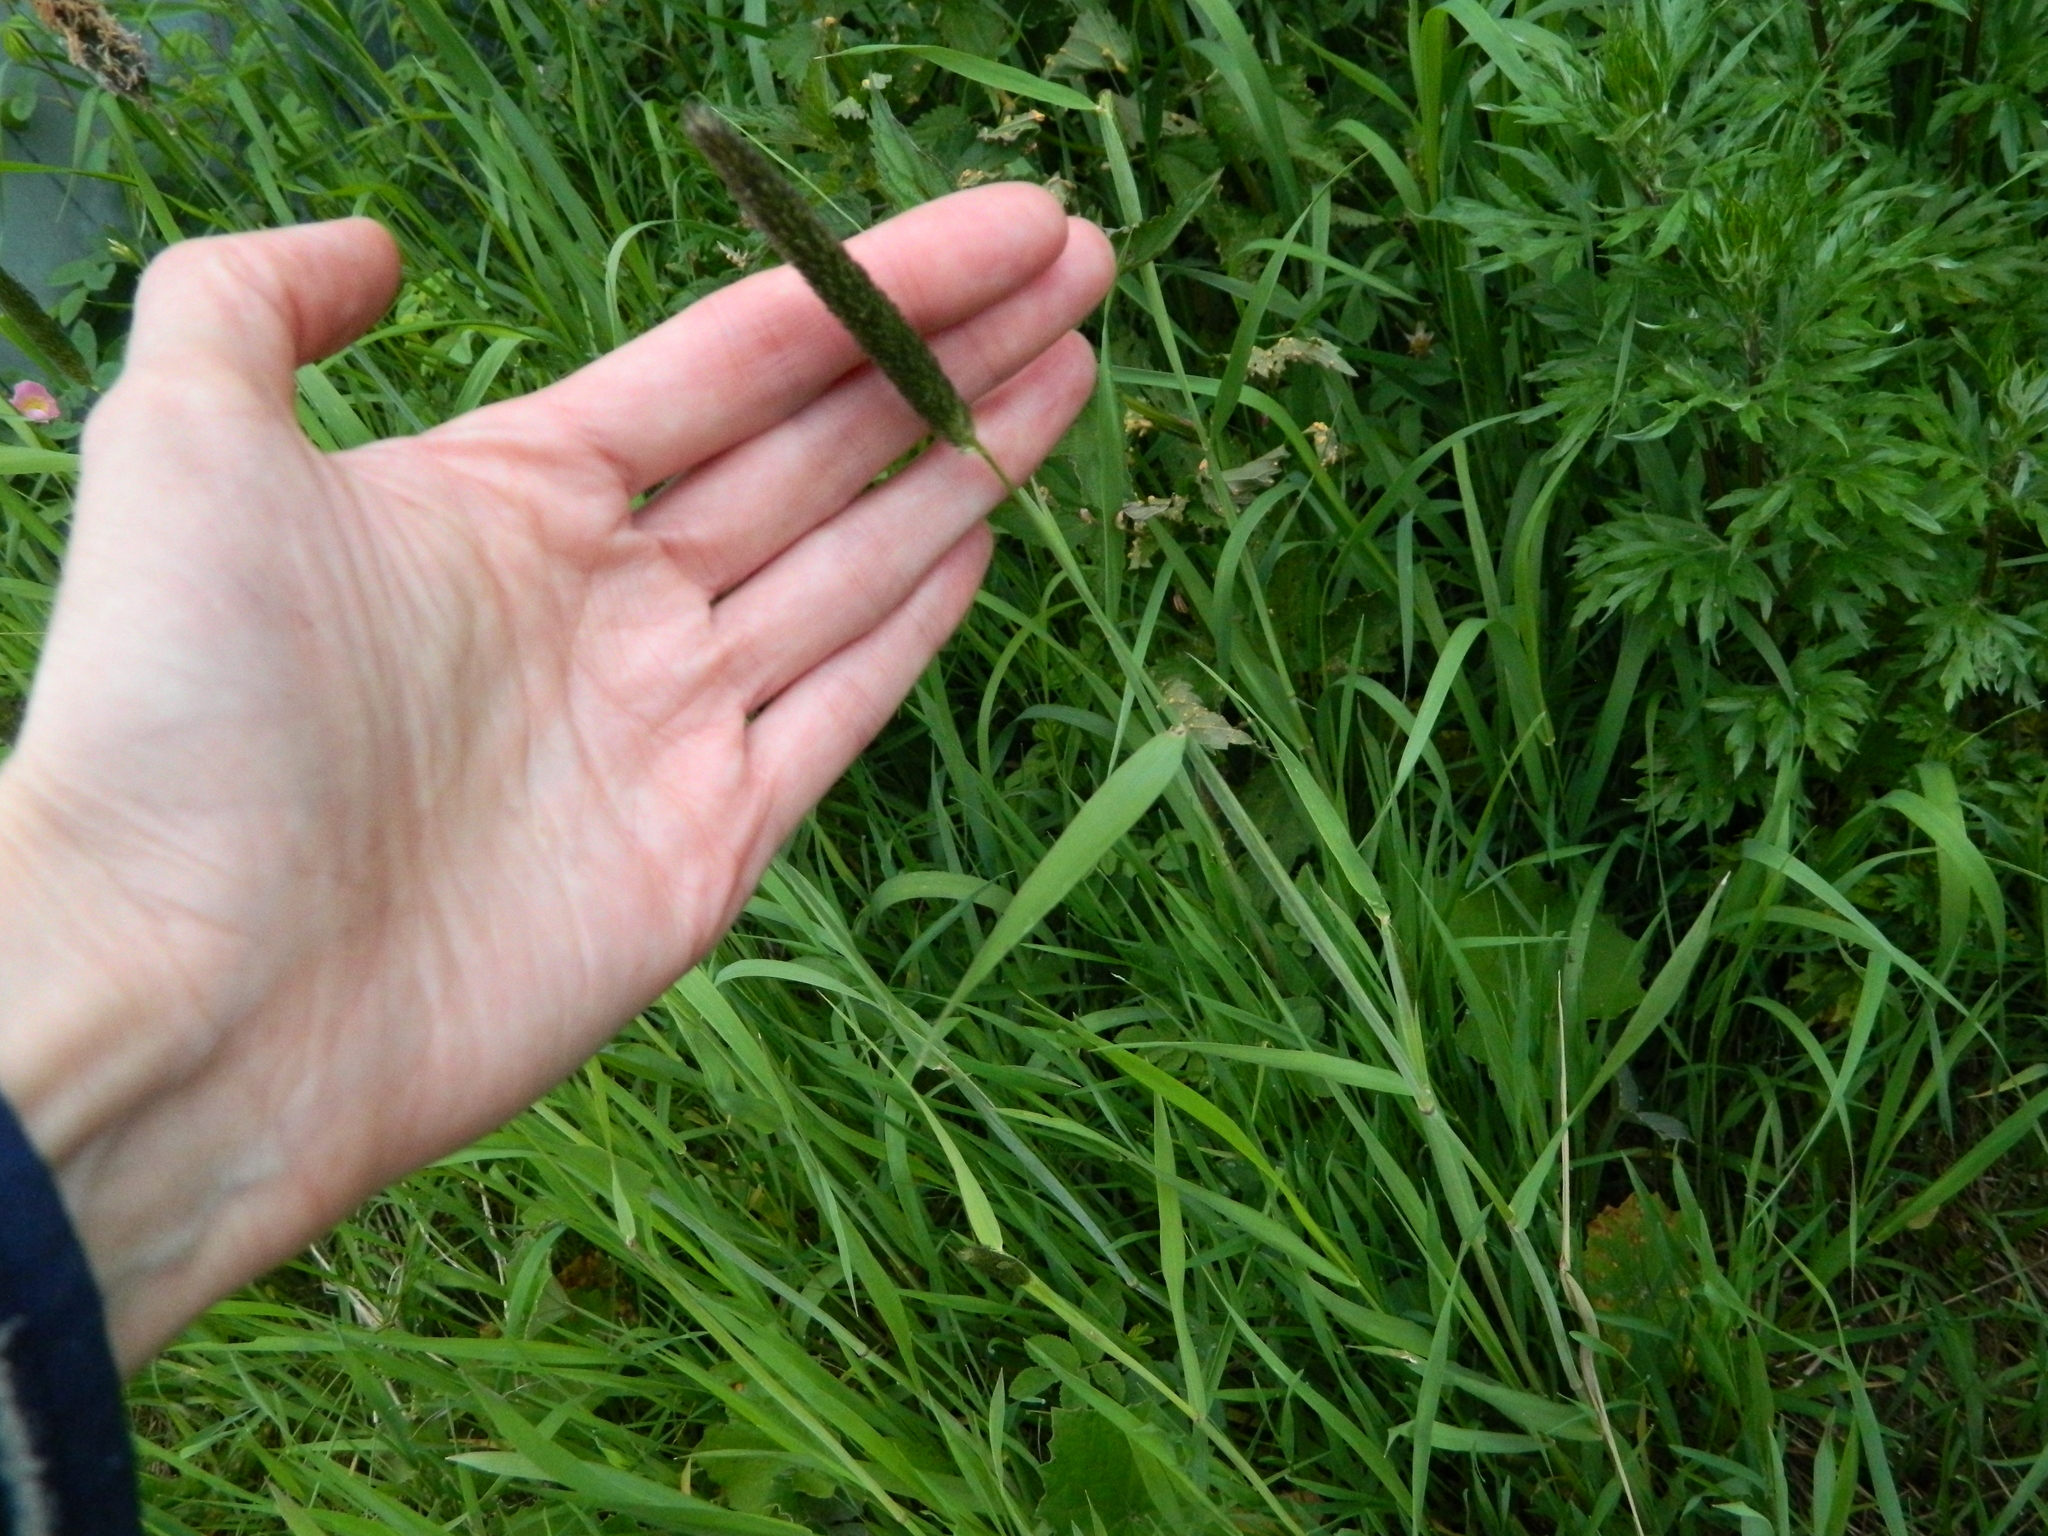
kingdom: Plantae
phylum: Tracheophyta
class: Liliopsida
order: Poales
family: Poaceae
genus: Alopecurus
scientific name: Alopecurus arundinaceus
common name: Creeping meadow foxtail
